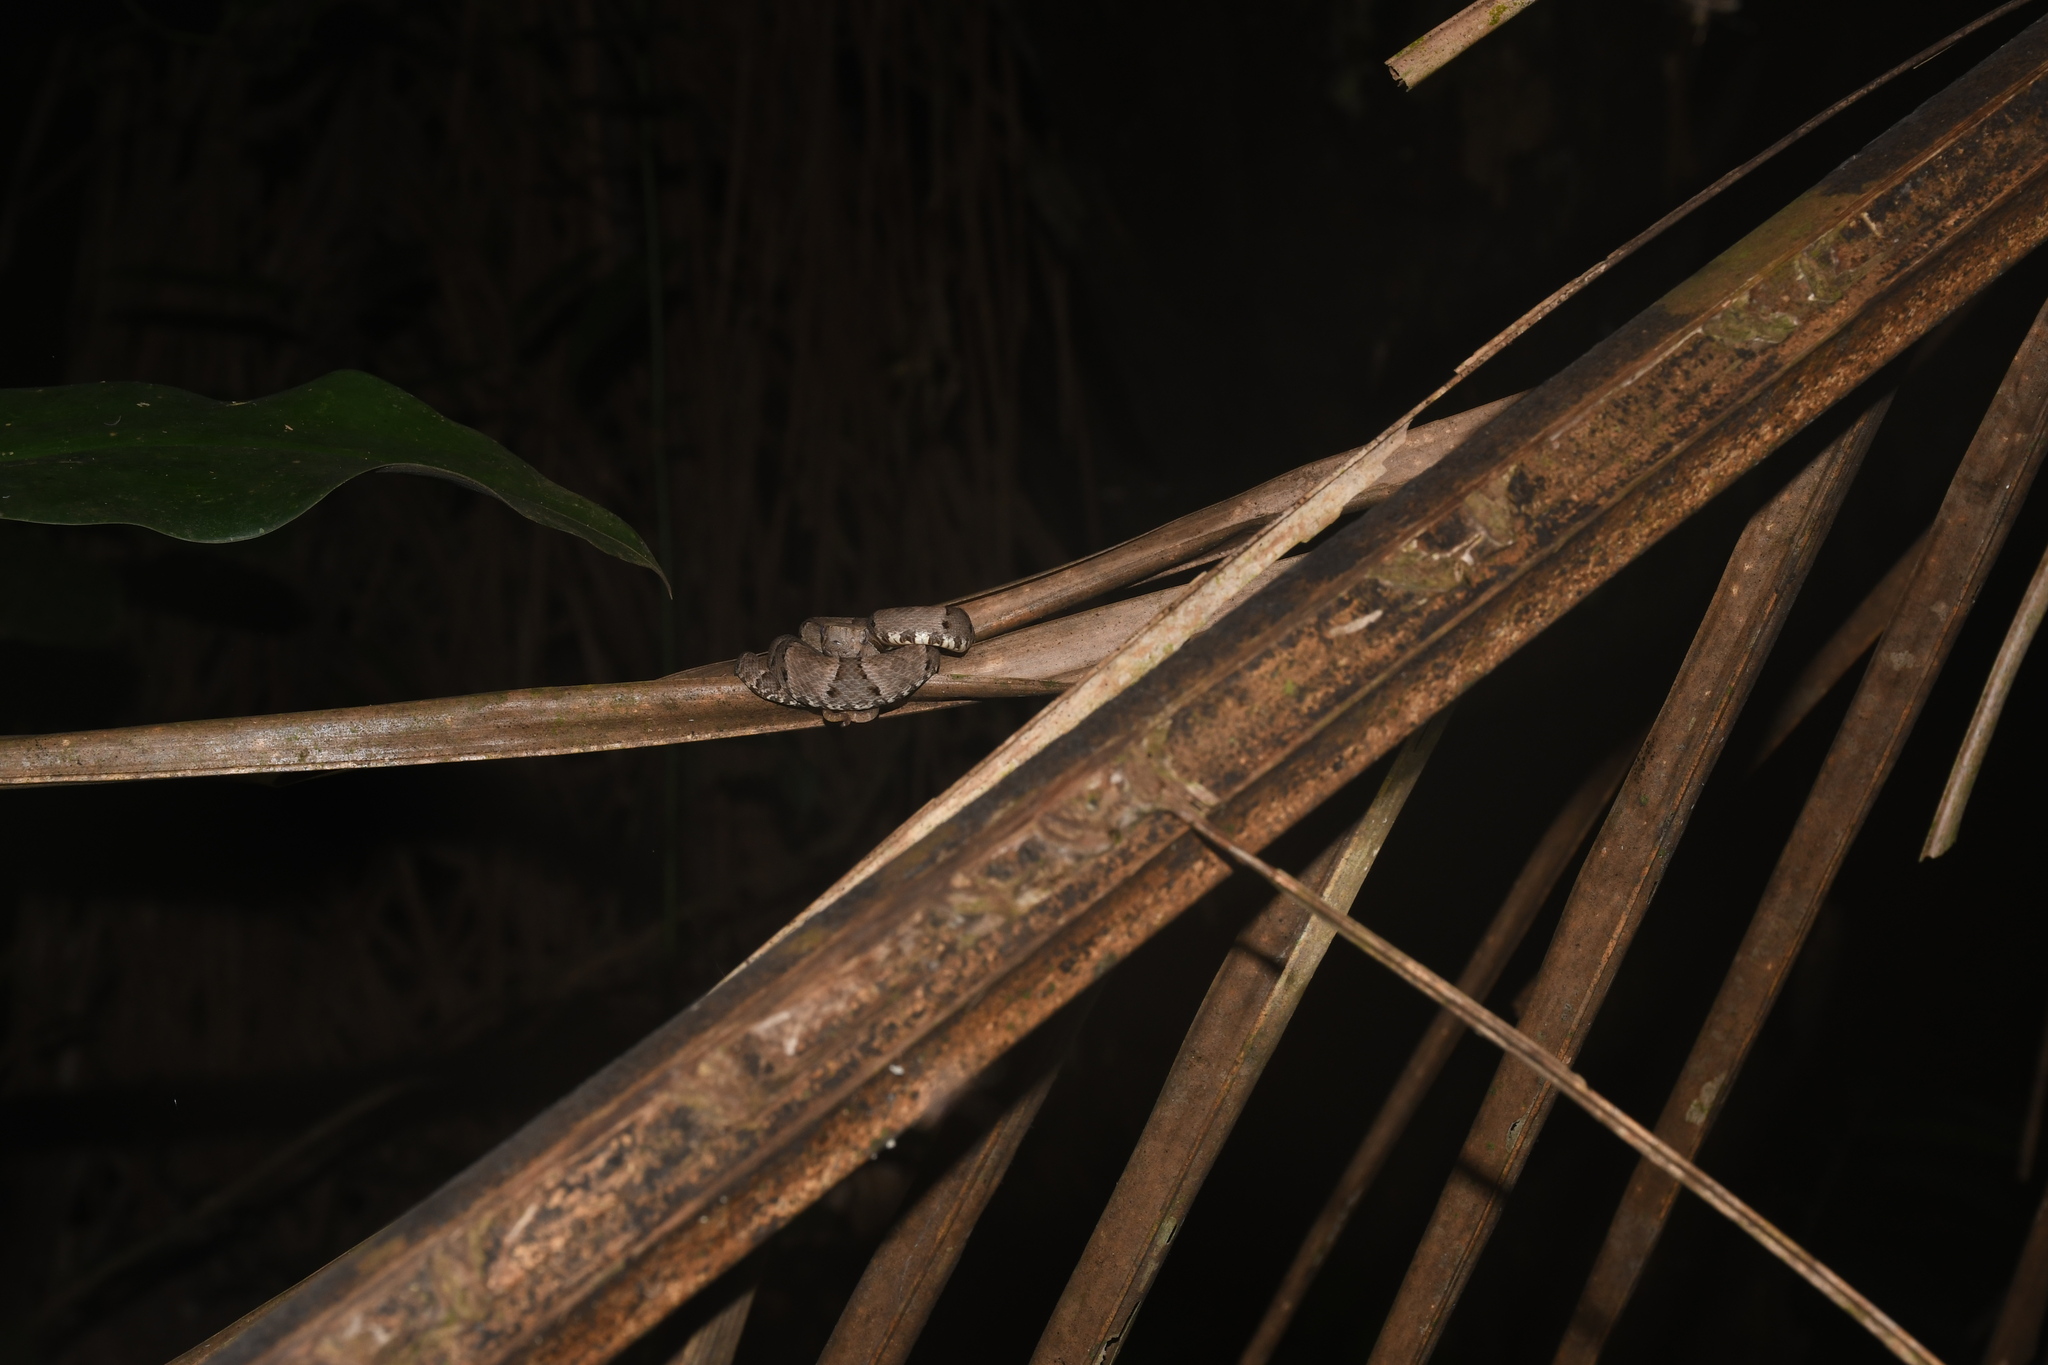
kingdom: Animalia
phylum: Chordata
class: Squamata
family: Viperidae
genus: Bothrops
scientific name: Bothrops atrox
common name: Common lancehead
